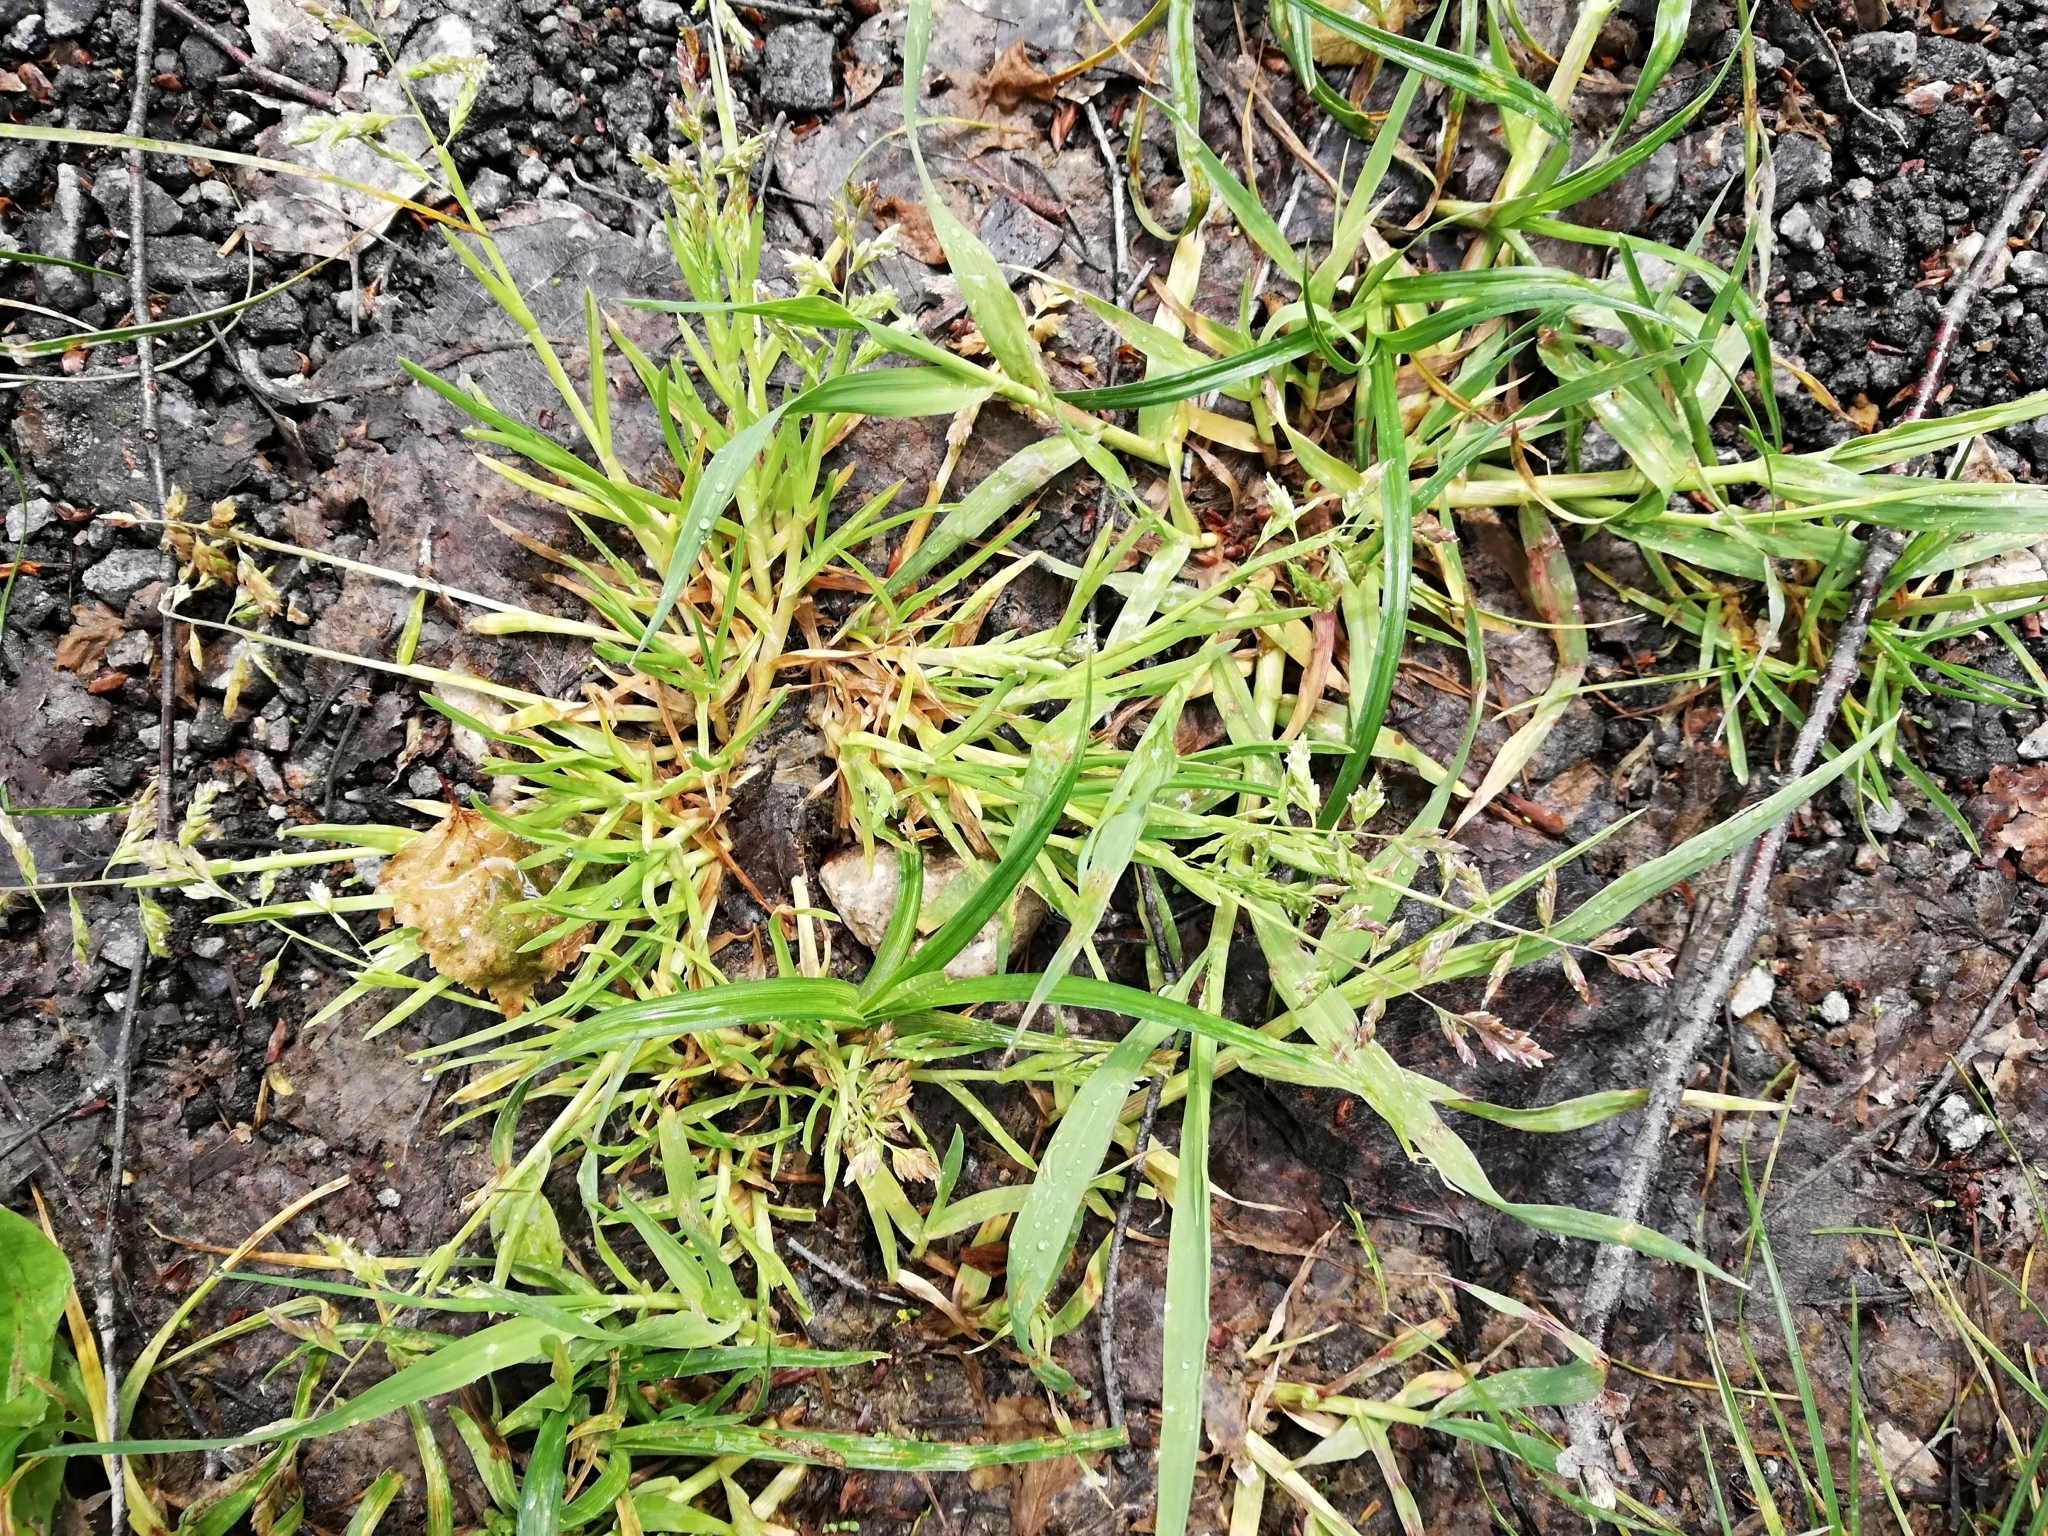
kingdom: Plantae
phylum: Tracheophyta
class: Liliopsida
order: Poales
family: Poaceae
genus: Poa
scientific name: Poa annua
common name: Annual bluegrass
